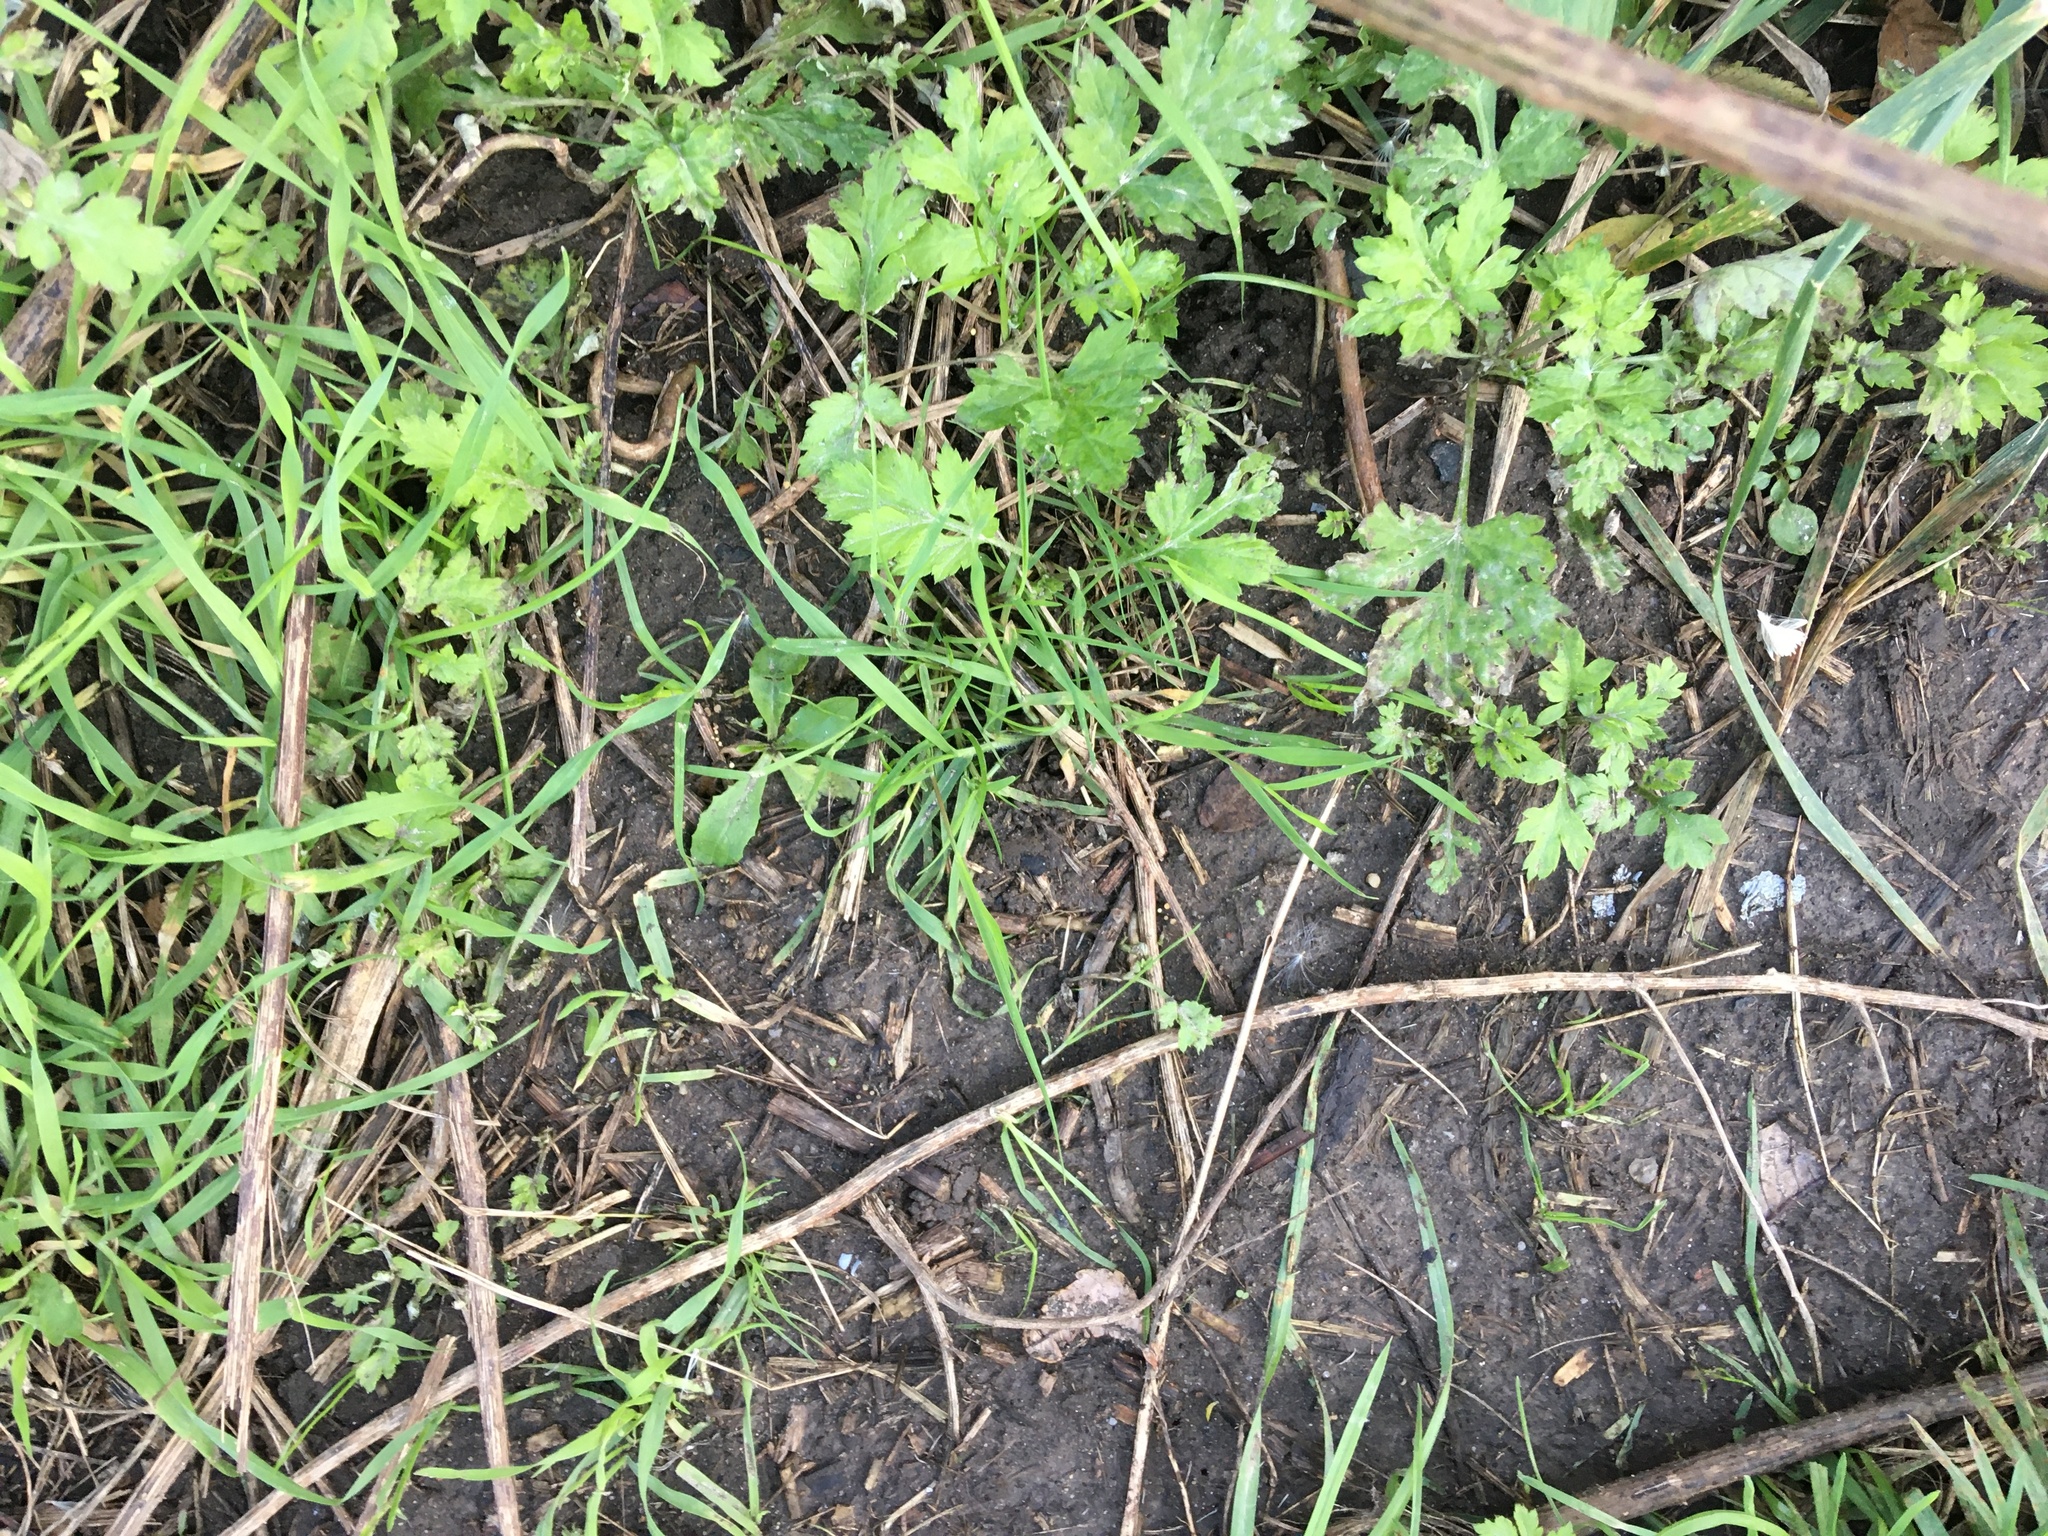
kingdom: Plantae
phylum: Tracheophyta
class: Magnoliopsida
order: Asterales
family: Asteraceae
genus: Artemisia
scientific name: Artemisia vulgaris
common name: Mugwort
